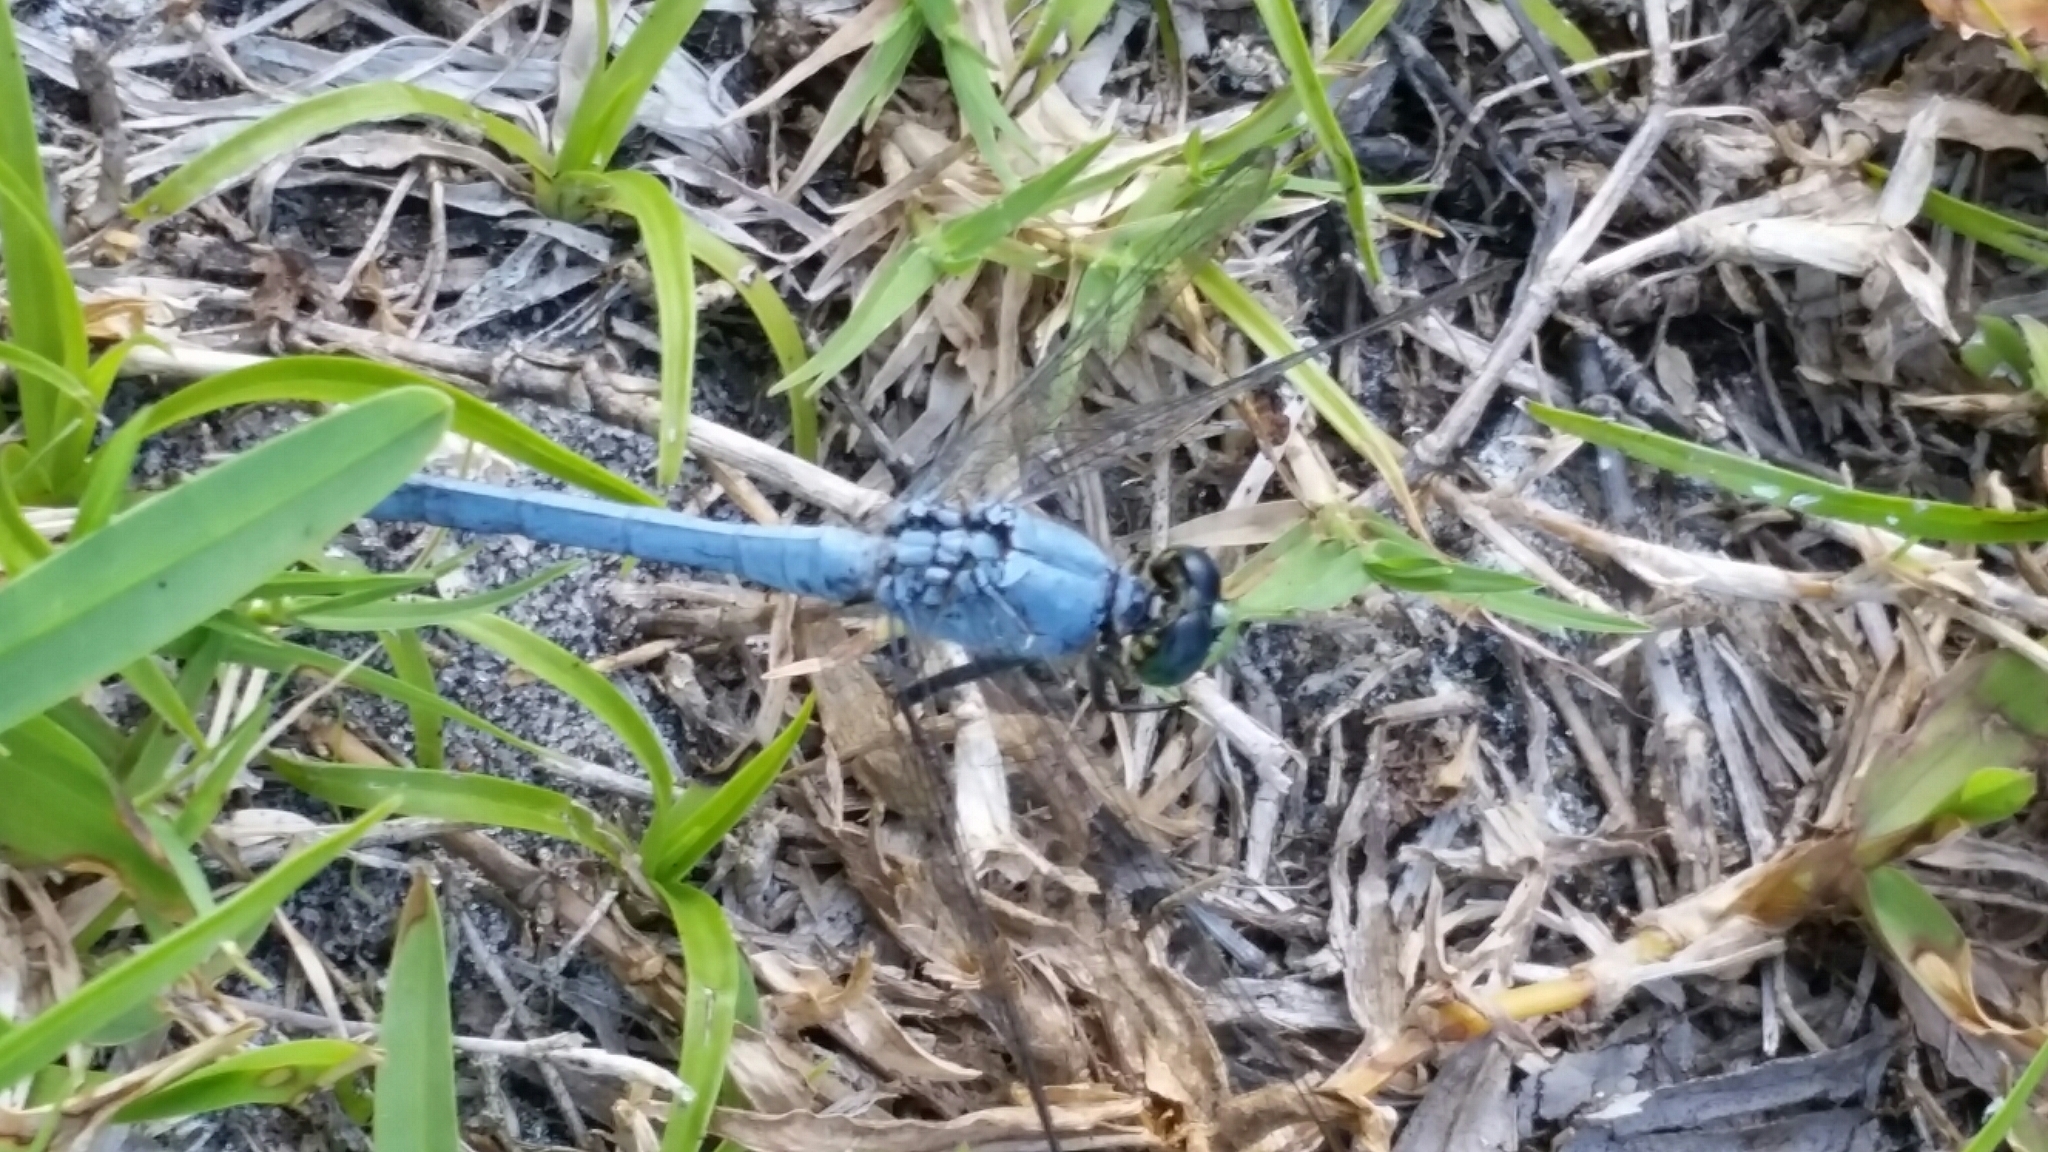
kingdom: Animalia
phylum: Arthropoda
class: Insecta
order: Odonata
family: Libellulidae
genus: Erythemis
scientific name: Erythemis simplicicollis
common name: Eastern pondhawk
